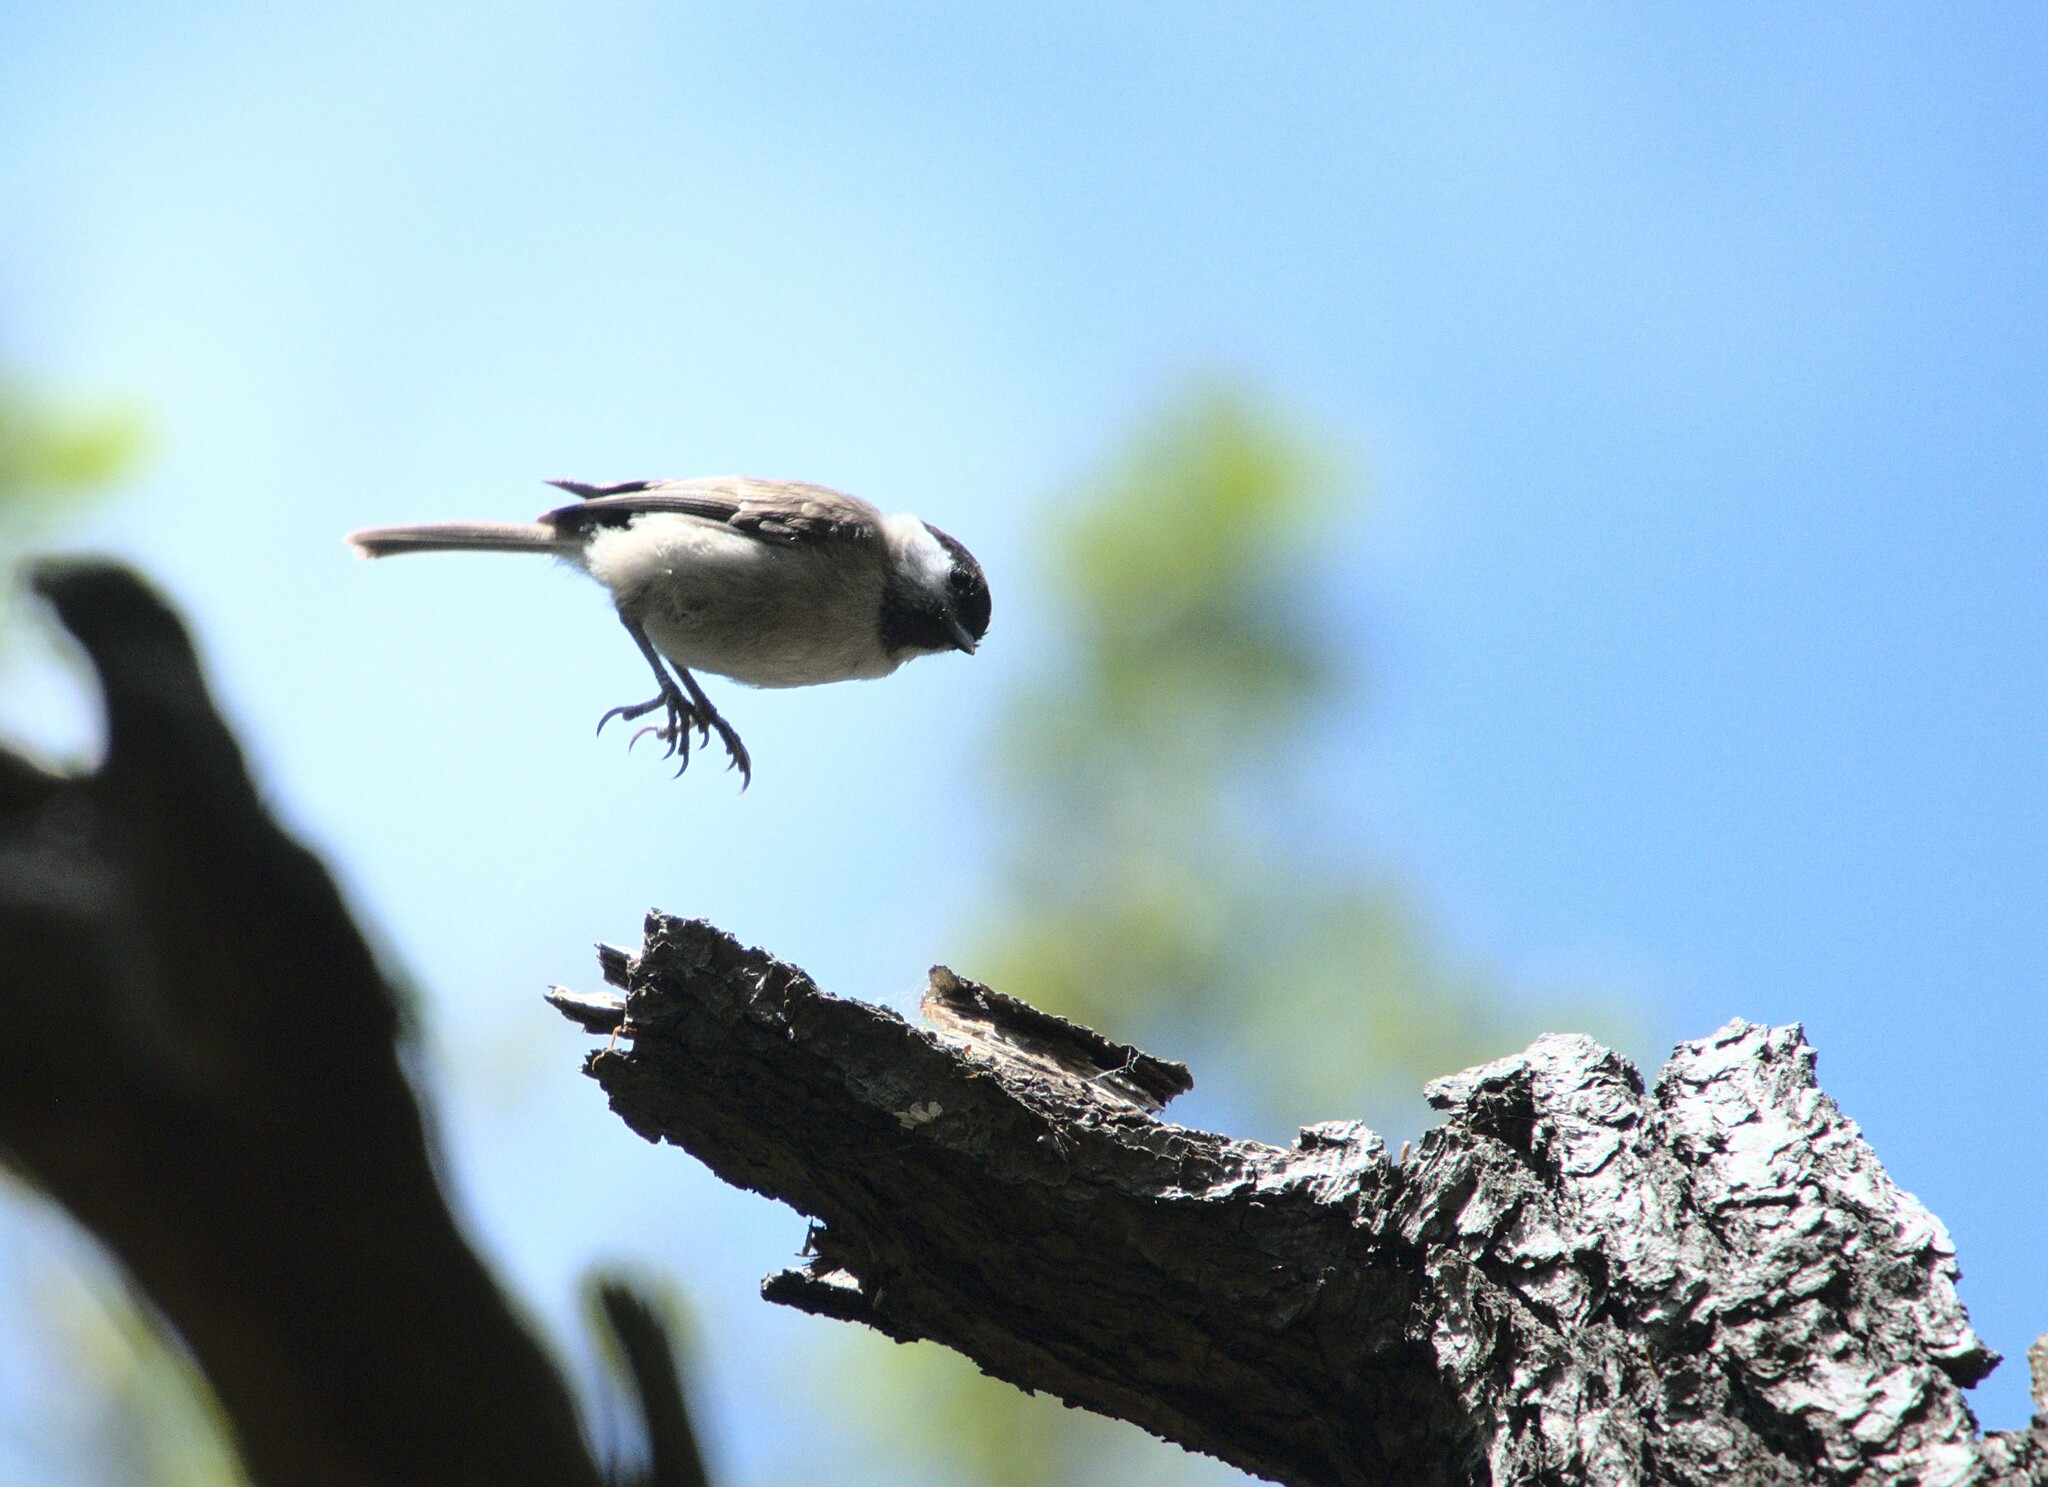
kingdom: Animalia
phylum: Chordata
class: Aves
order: Passeriformes
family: Paridae
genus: Poecile
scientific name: Poecile palustris
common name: Marsh tit
